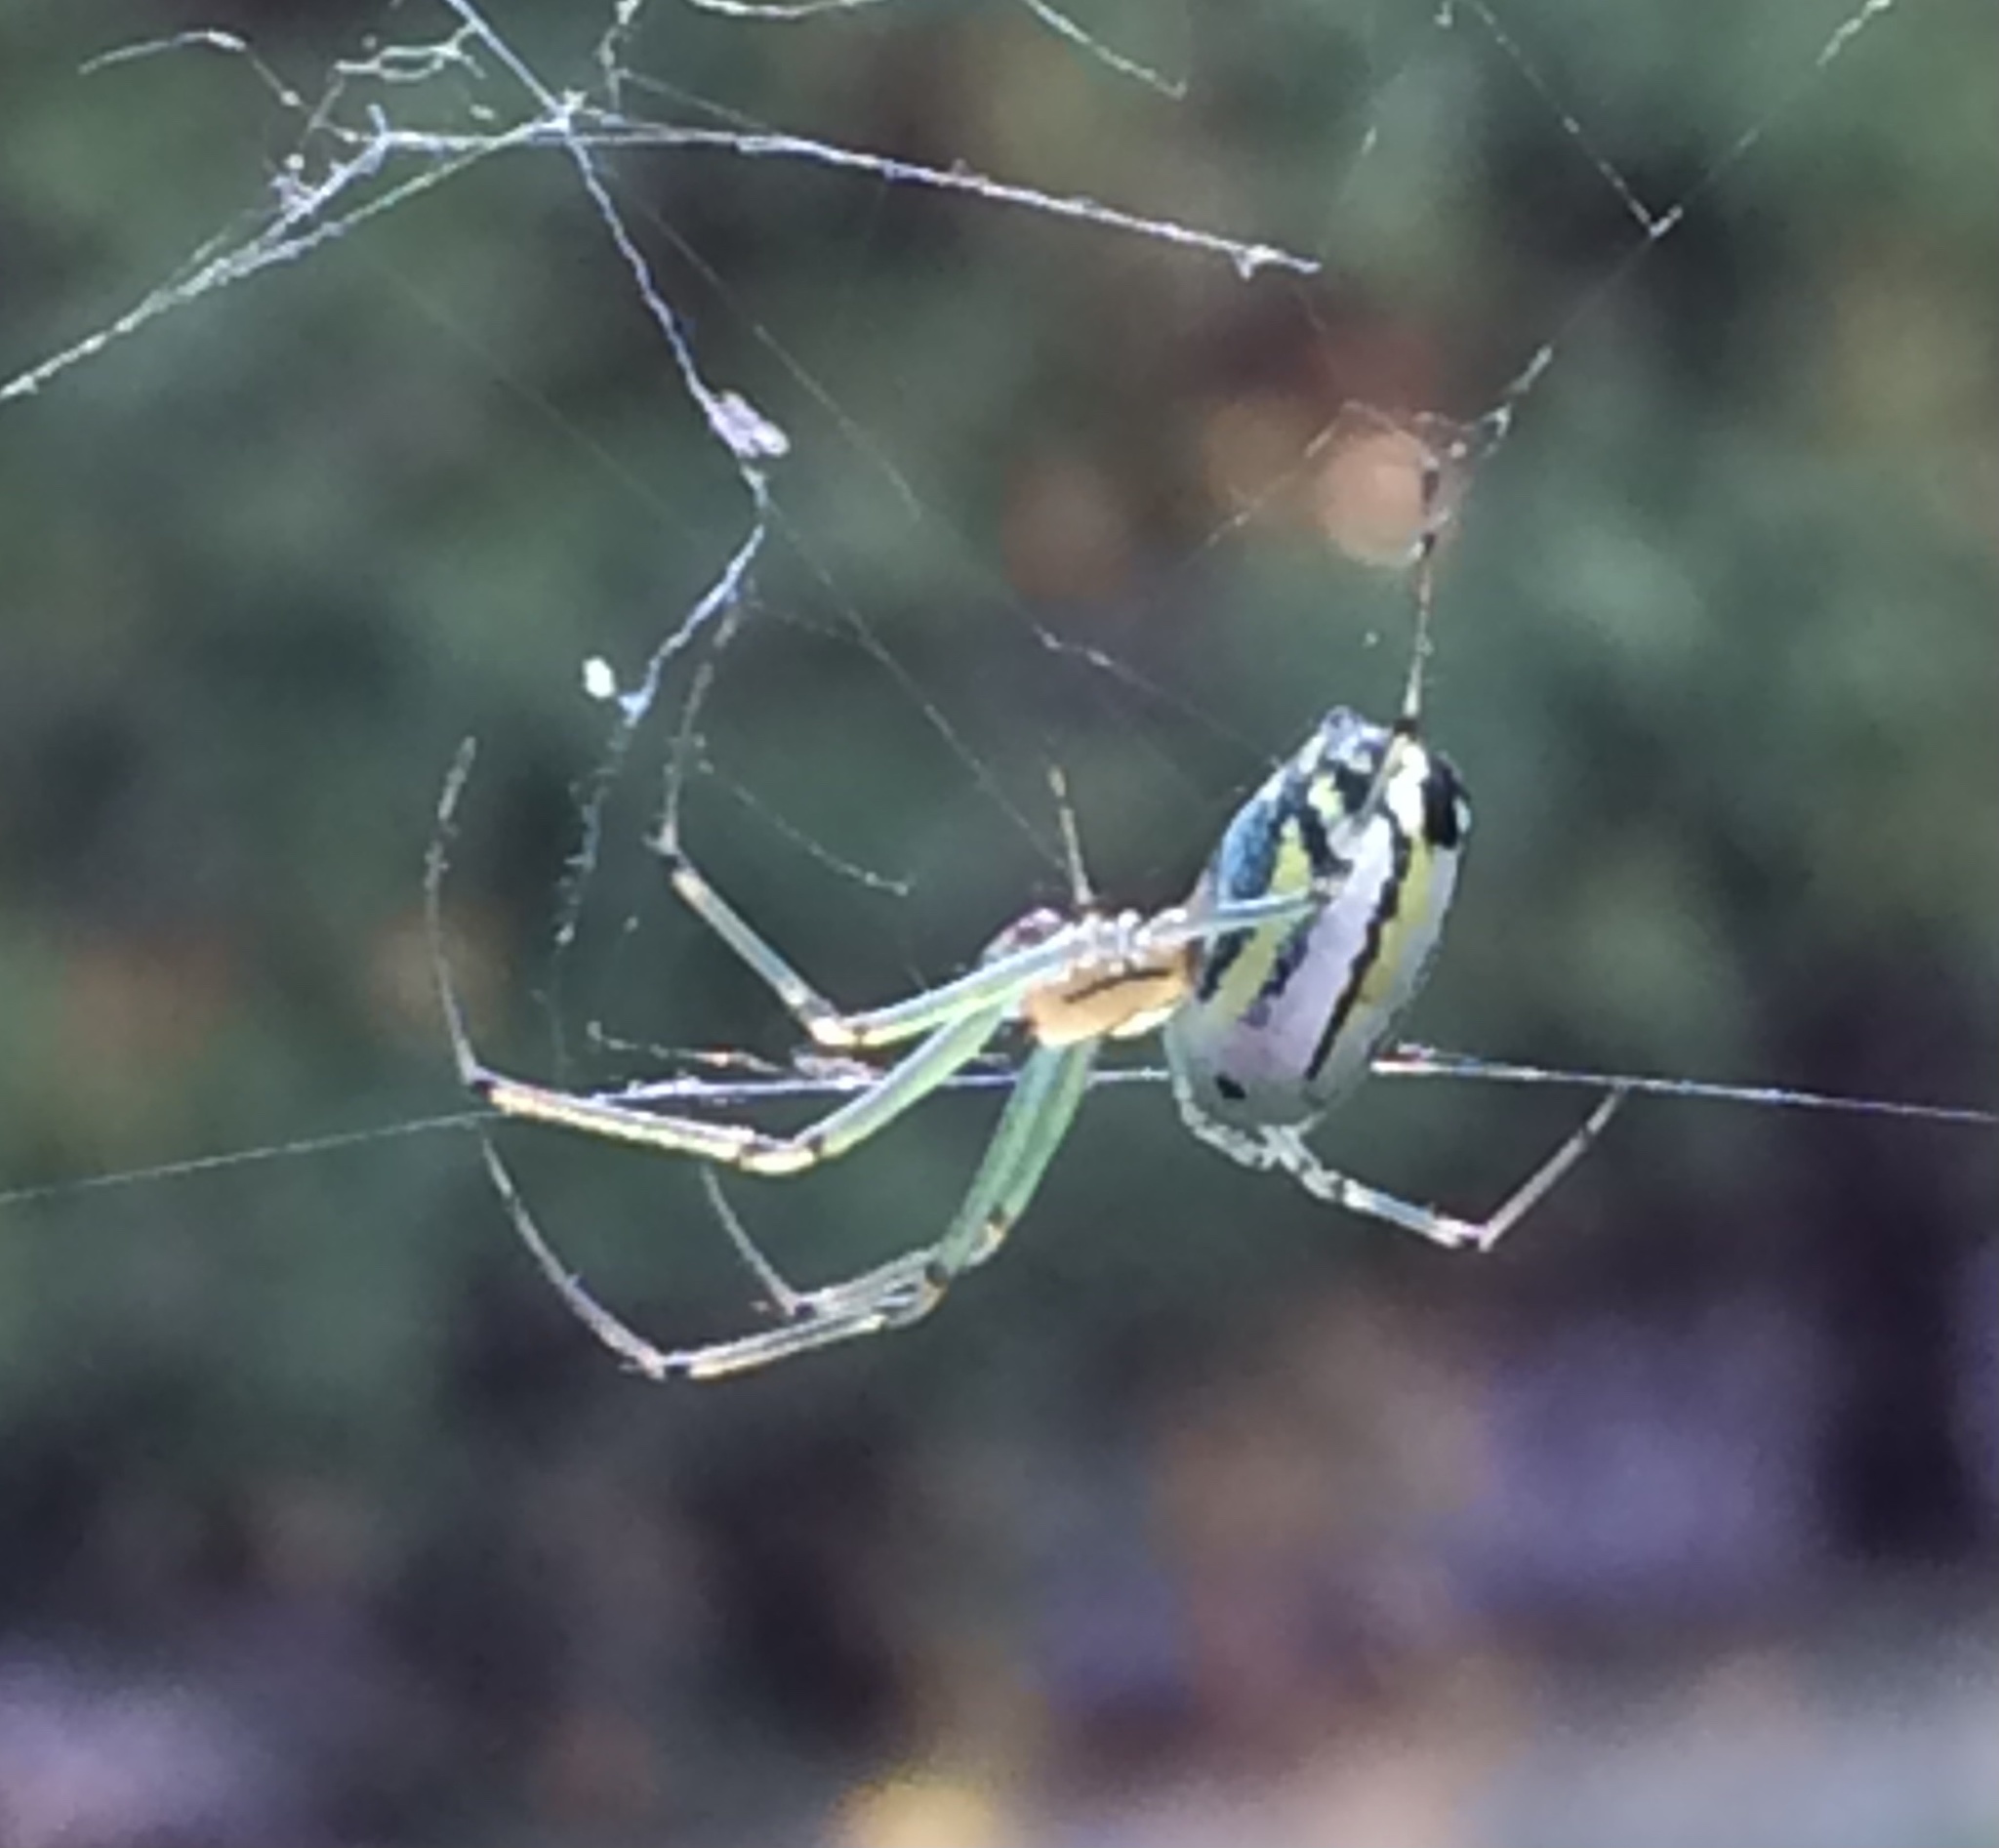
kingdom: Animalia
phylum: Arthropoda
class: Arachnida
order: Araneae
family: Tetragnathidae
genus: Leucauge
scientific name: Leucauge venusta
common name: Longjawed orb weavers
